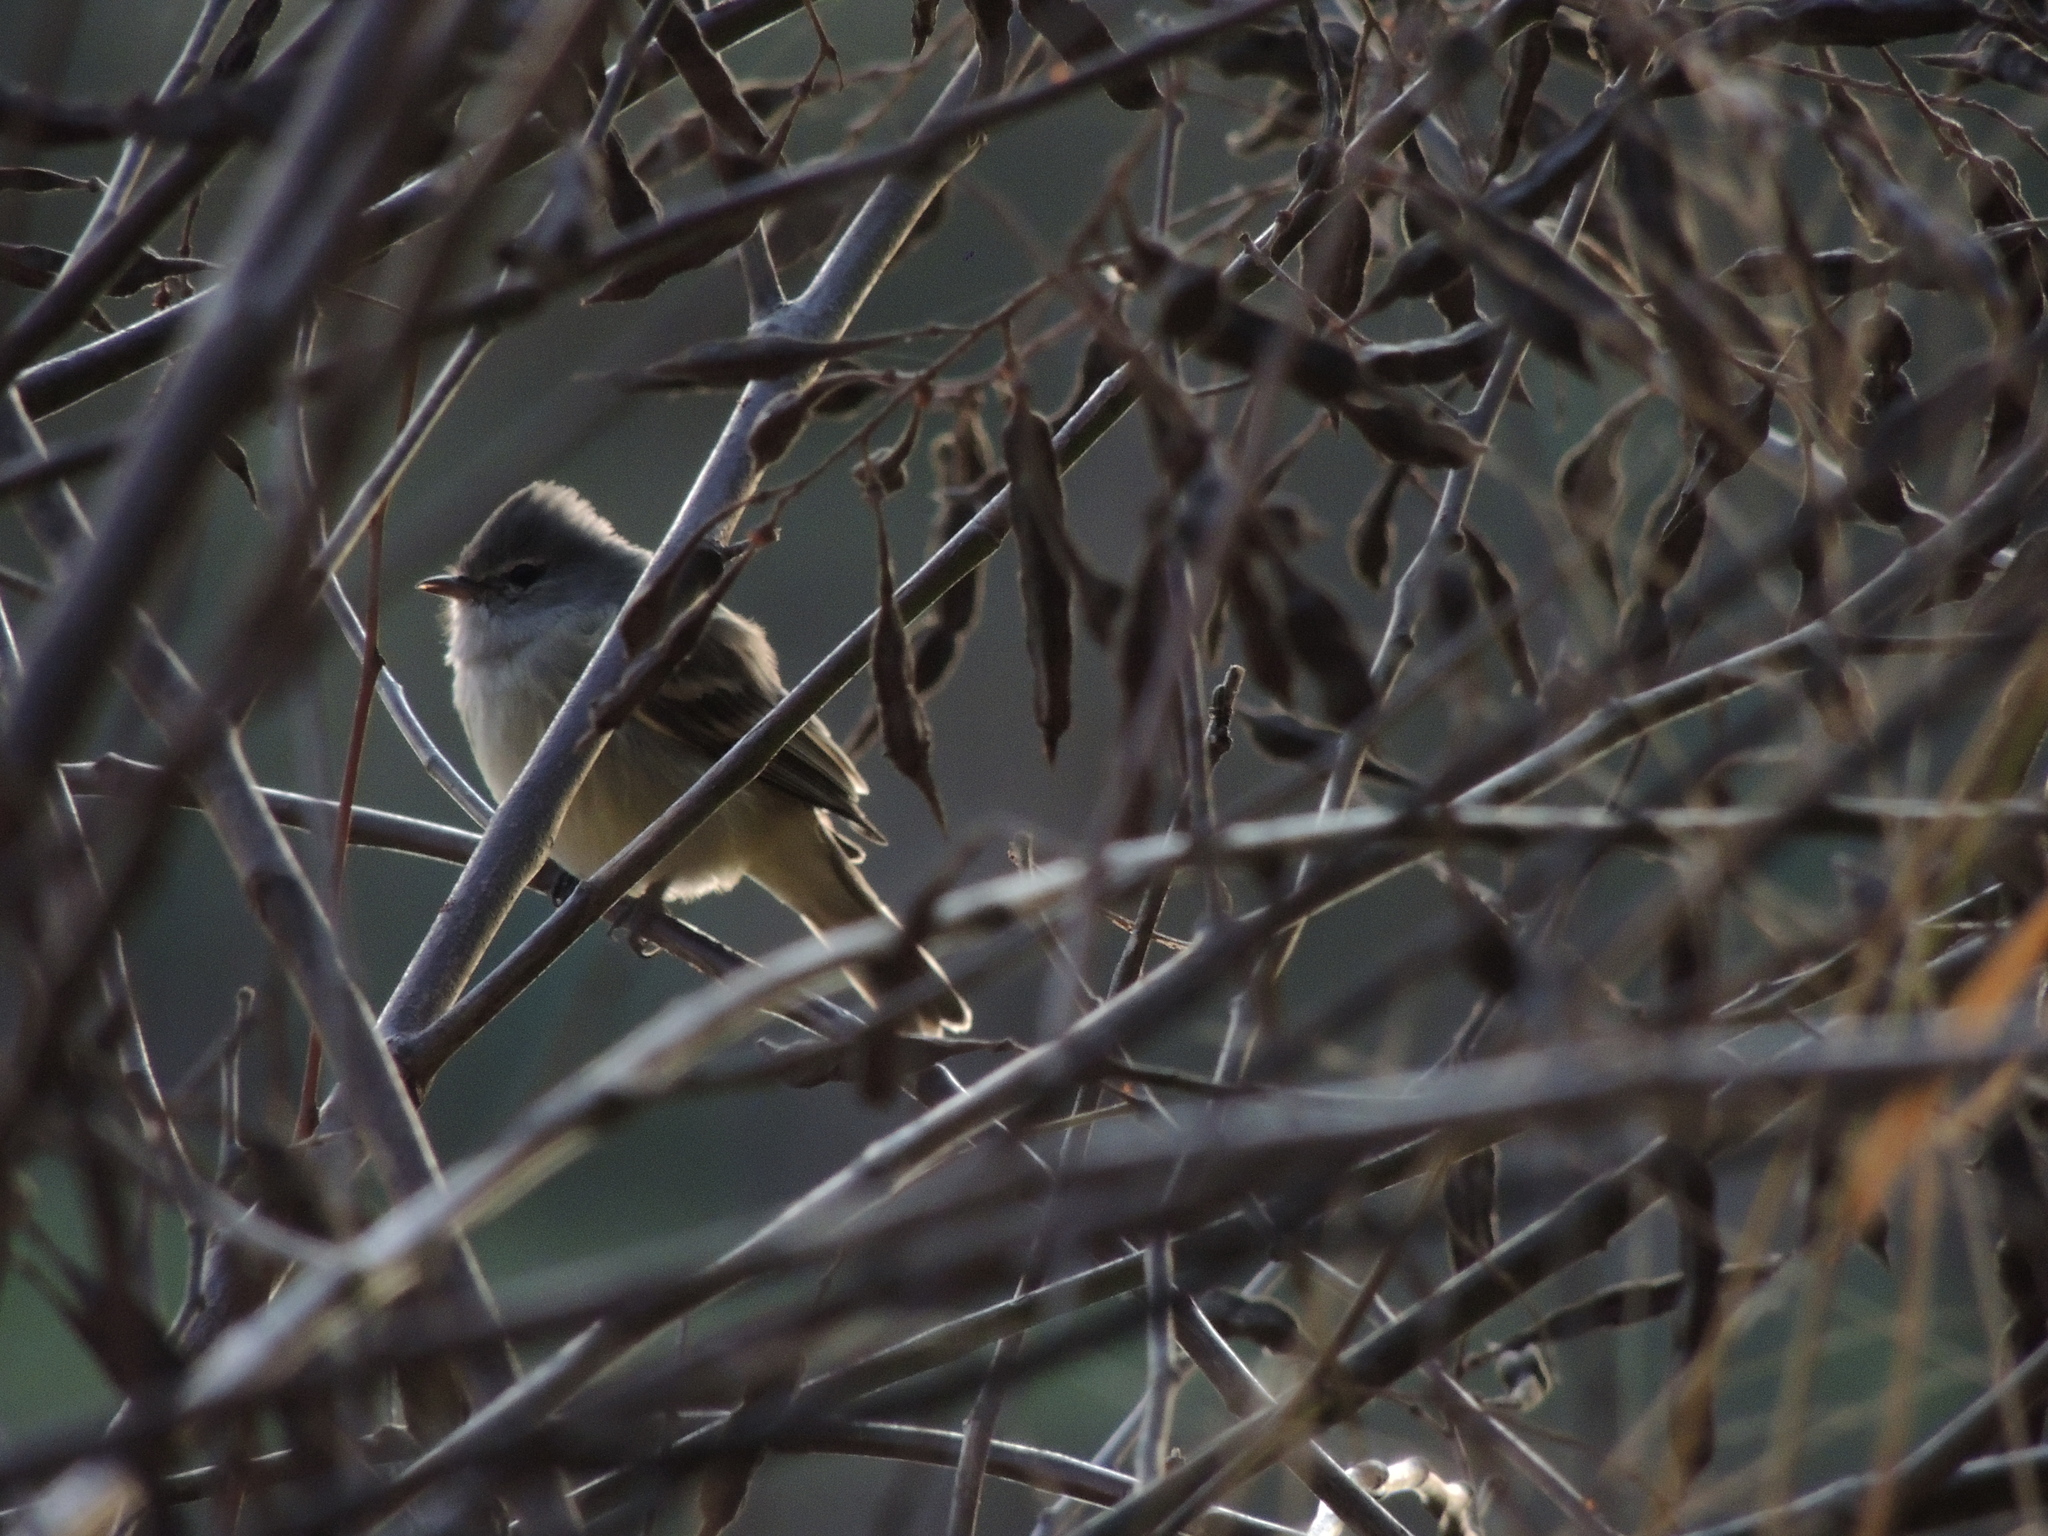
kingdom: Animalia
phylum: Chordata
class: Aves
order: Passeriformes
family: Tyrannidae
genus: Camptostoma
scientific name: Camptostoma obsoletum
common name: Southern beardless-tyrannulet
